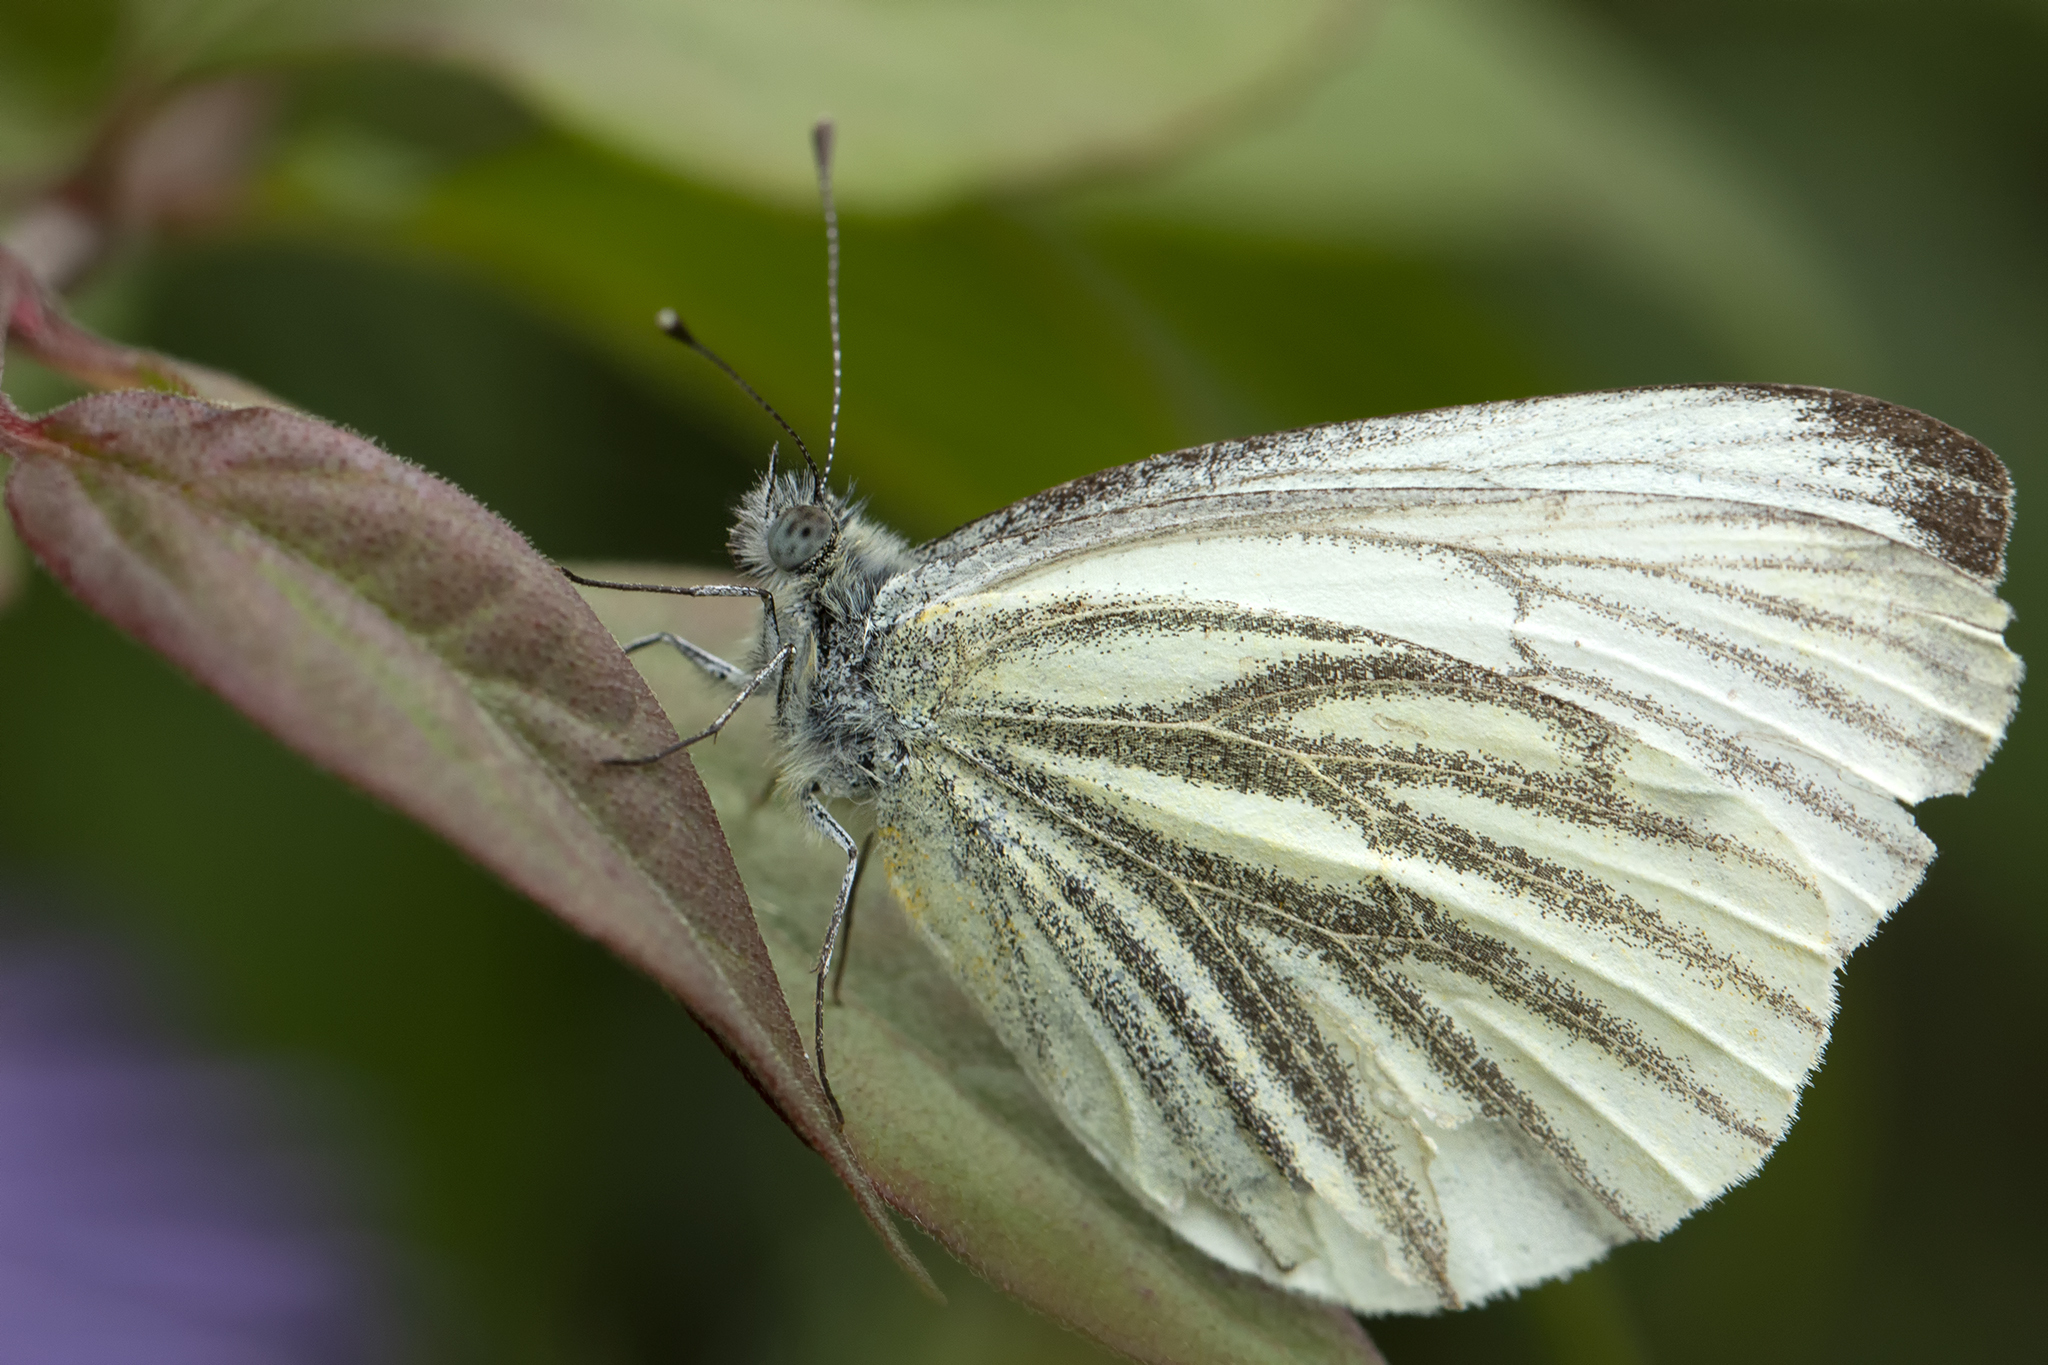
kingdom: Animalia
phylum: Arthropoda
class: Insecta
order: Lepidoptera
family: Pieridae
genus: Pieris
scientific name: Pieris napi
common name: Green-veined white
